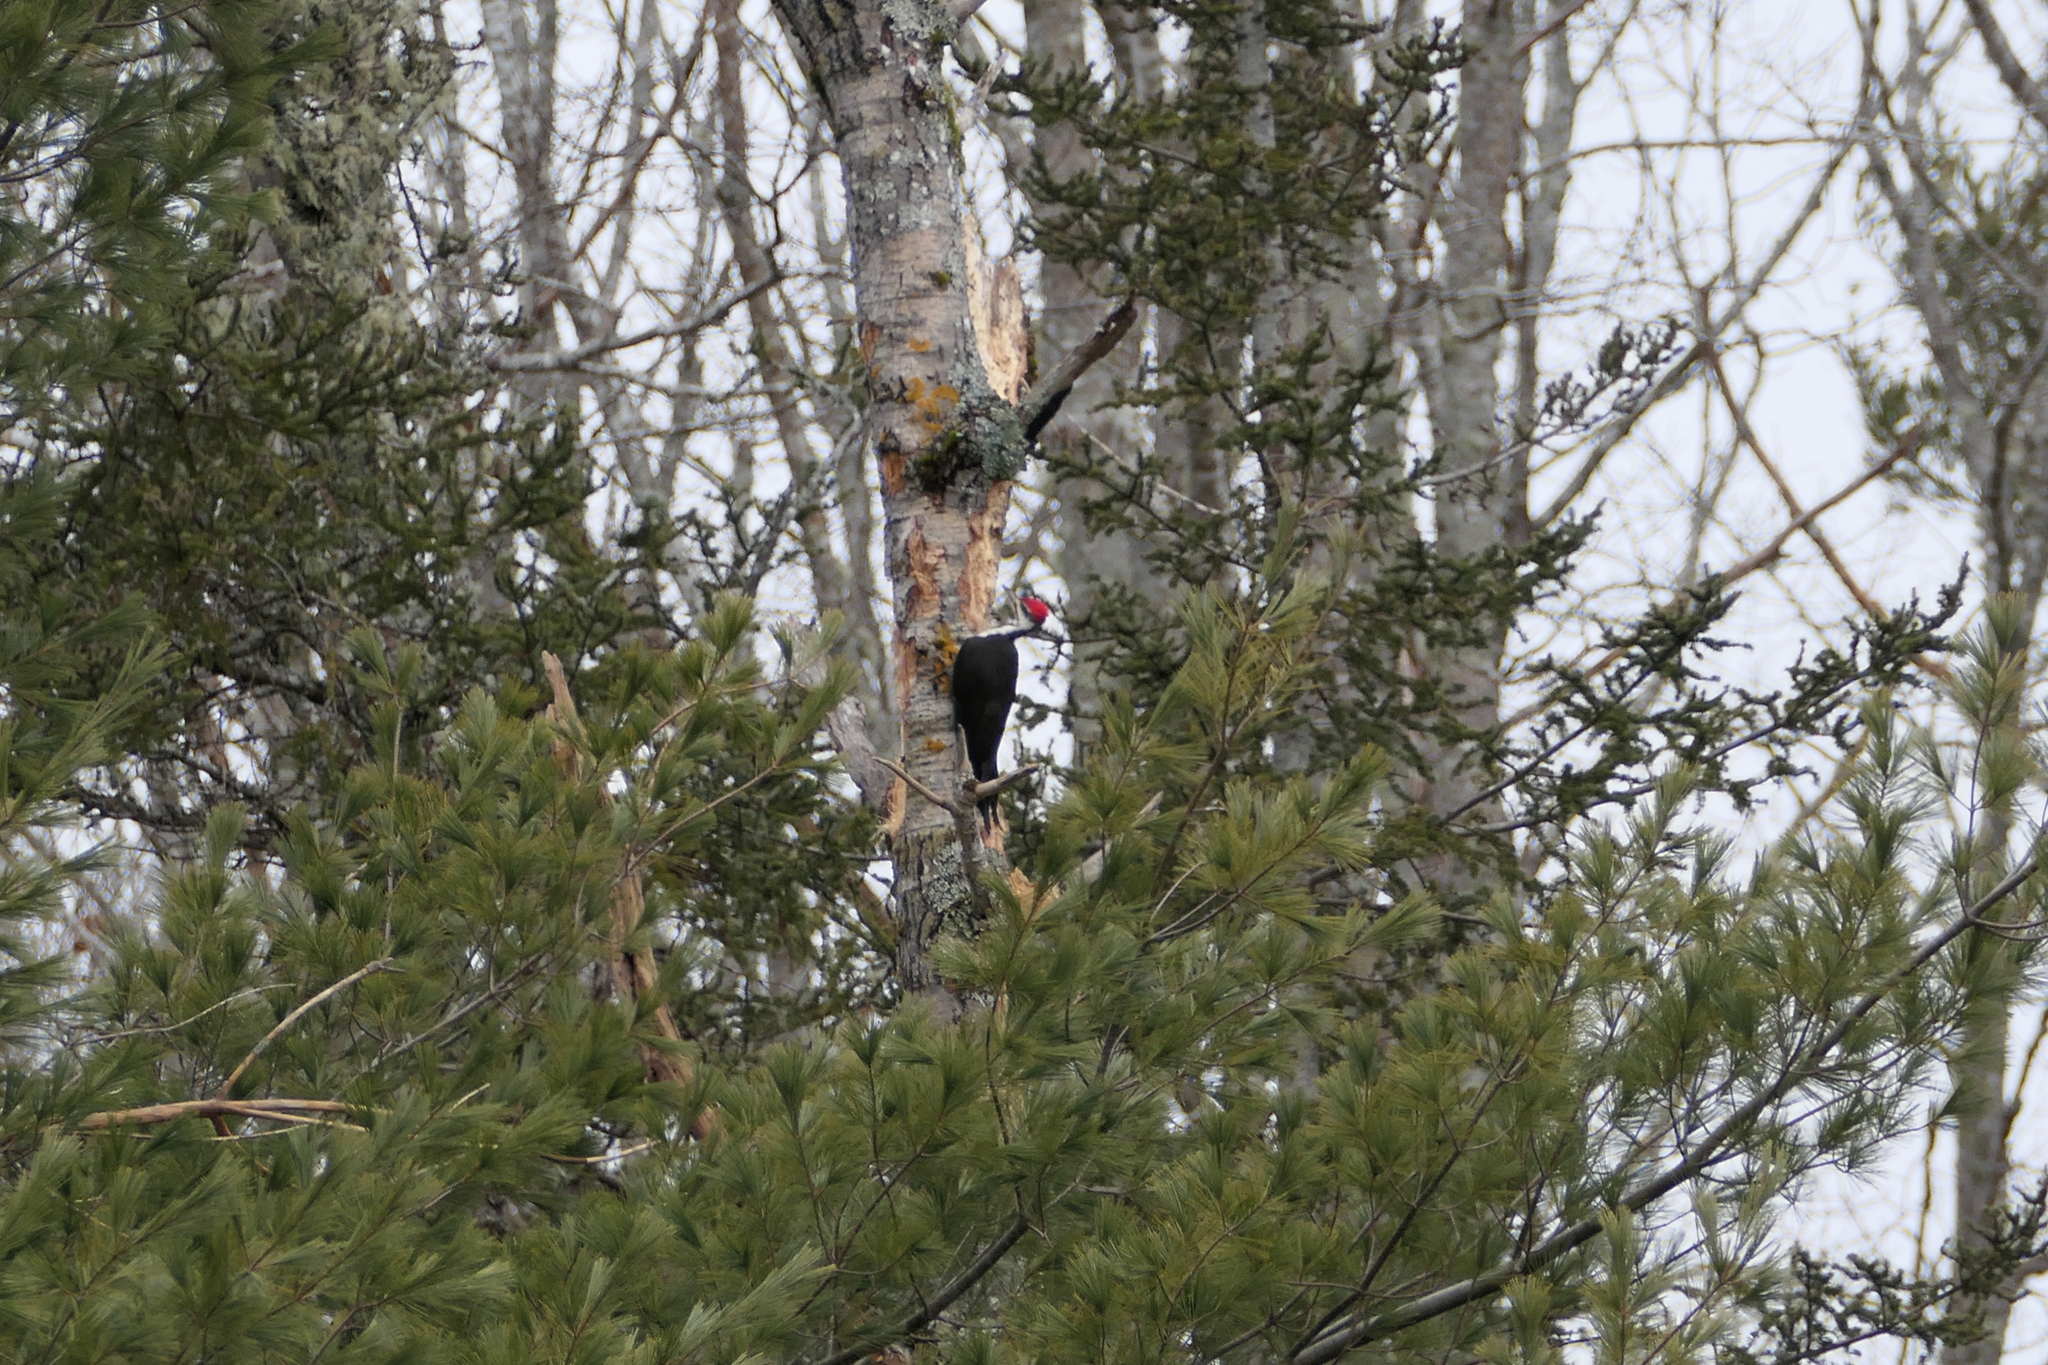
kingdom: Animalia
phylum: Chordata
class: Aves
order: Piciformes
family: Picidae
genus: Dryocopus
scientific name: Dryocopus pileatus
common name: Pileated woodpecker
